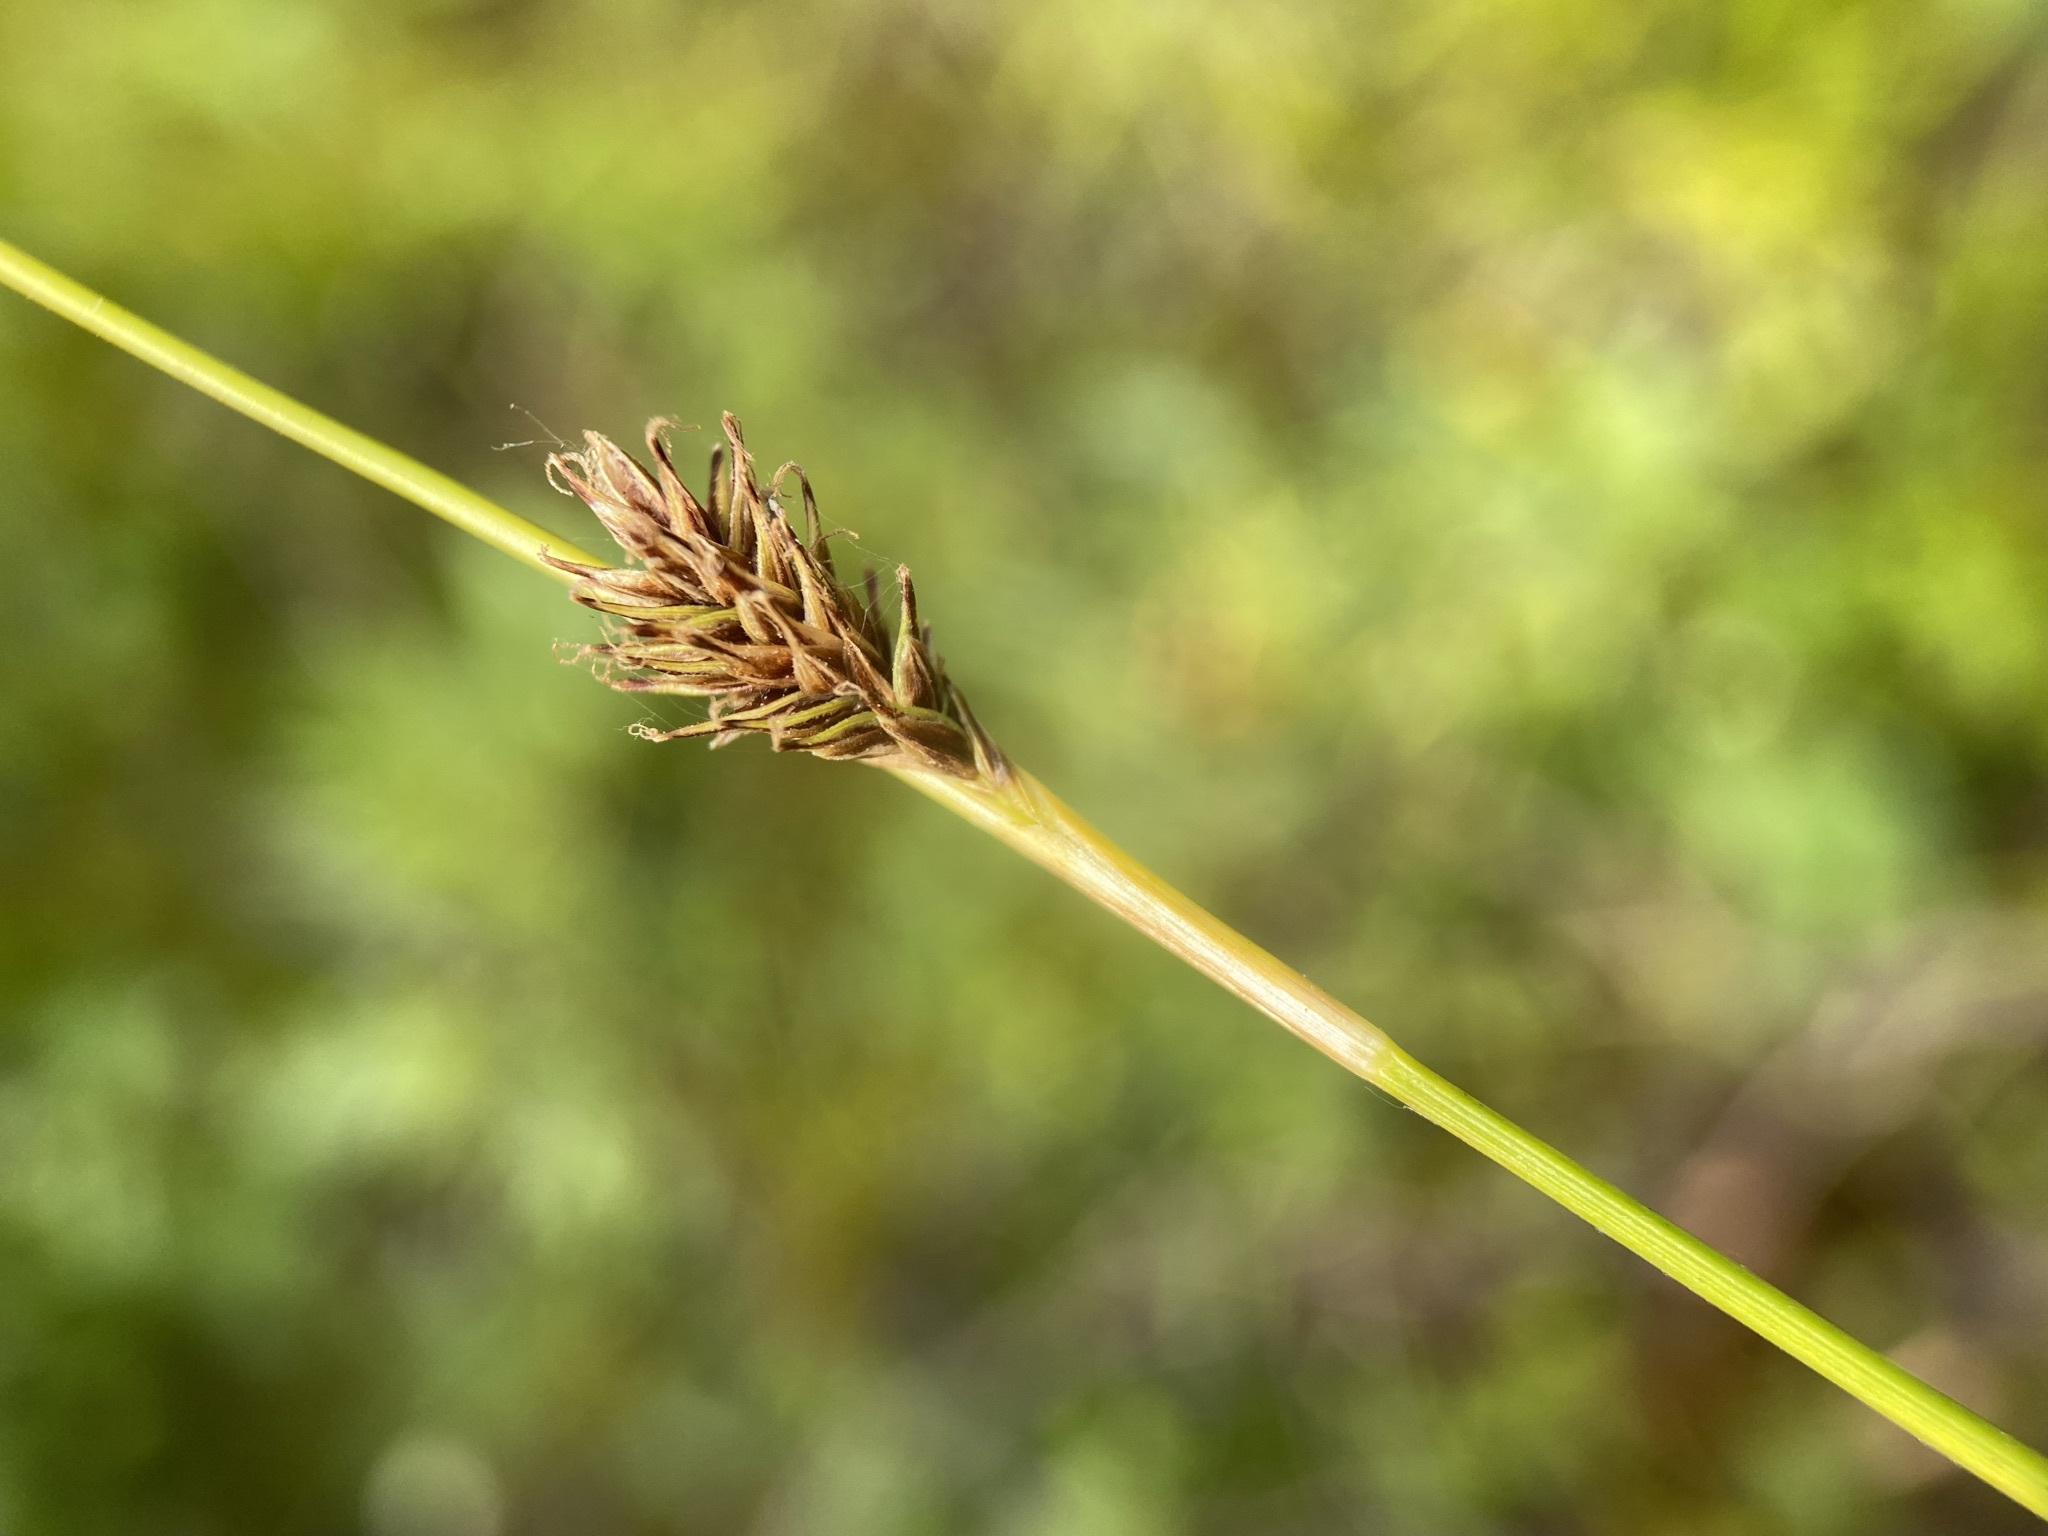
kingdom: Plantae
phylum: Tracheophyta
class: Liliopsida
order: Poales
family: Cyperaceae
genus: Carex
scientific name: Carex luzulina
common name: Spring sedge
